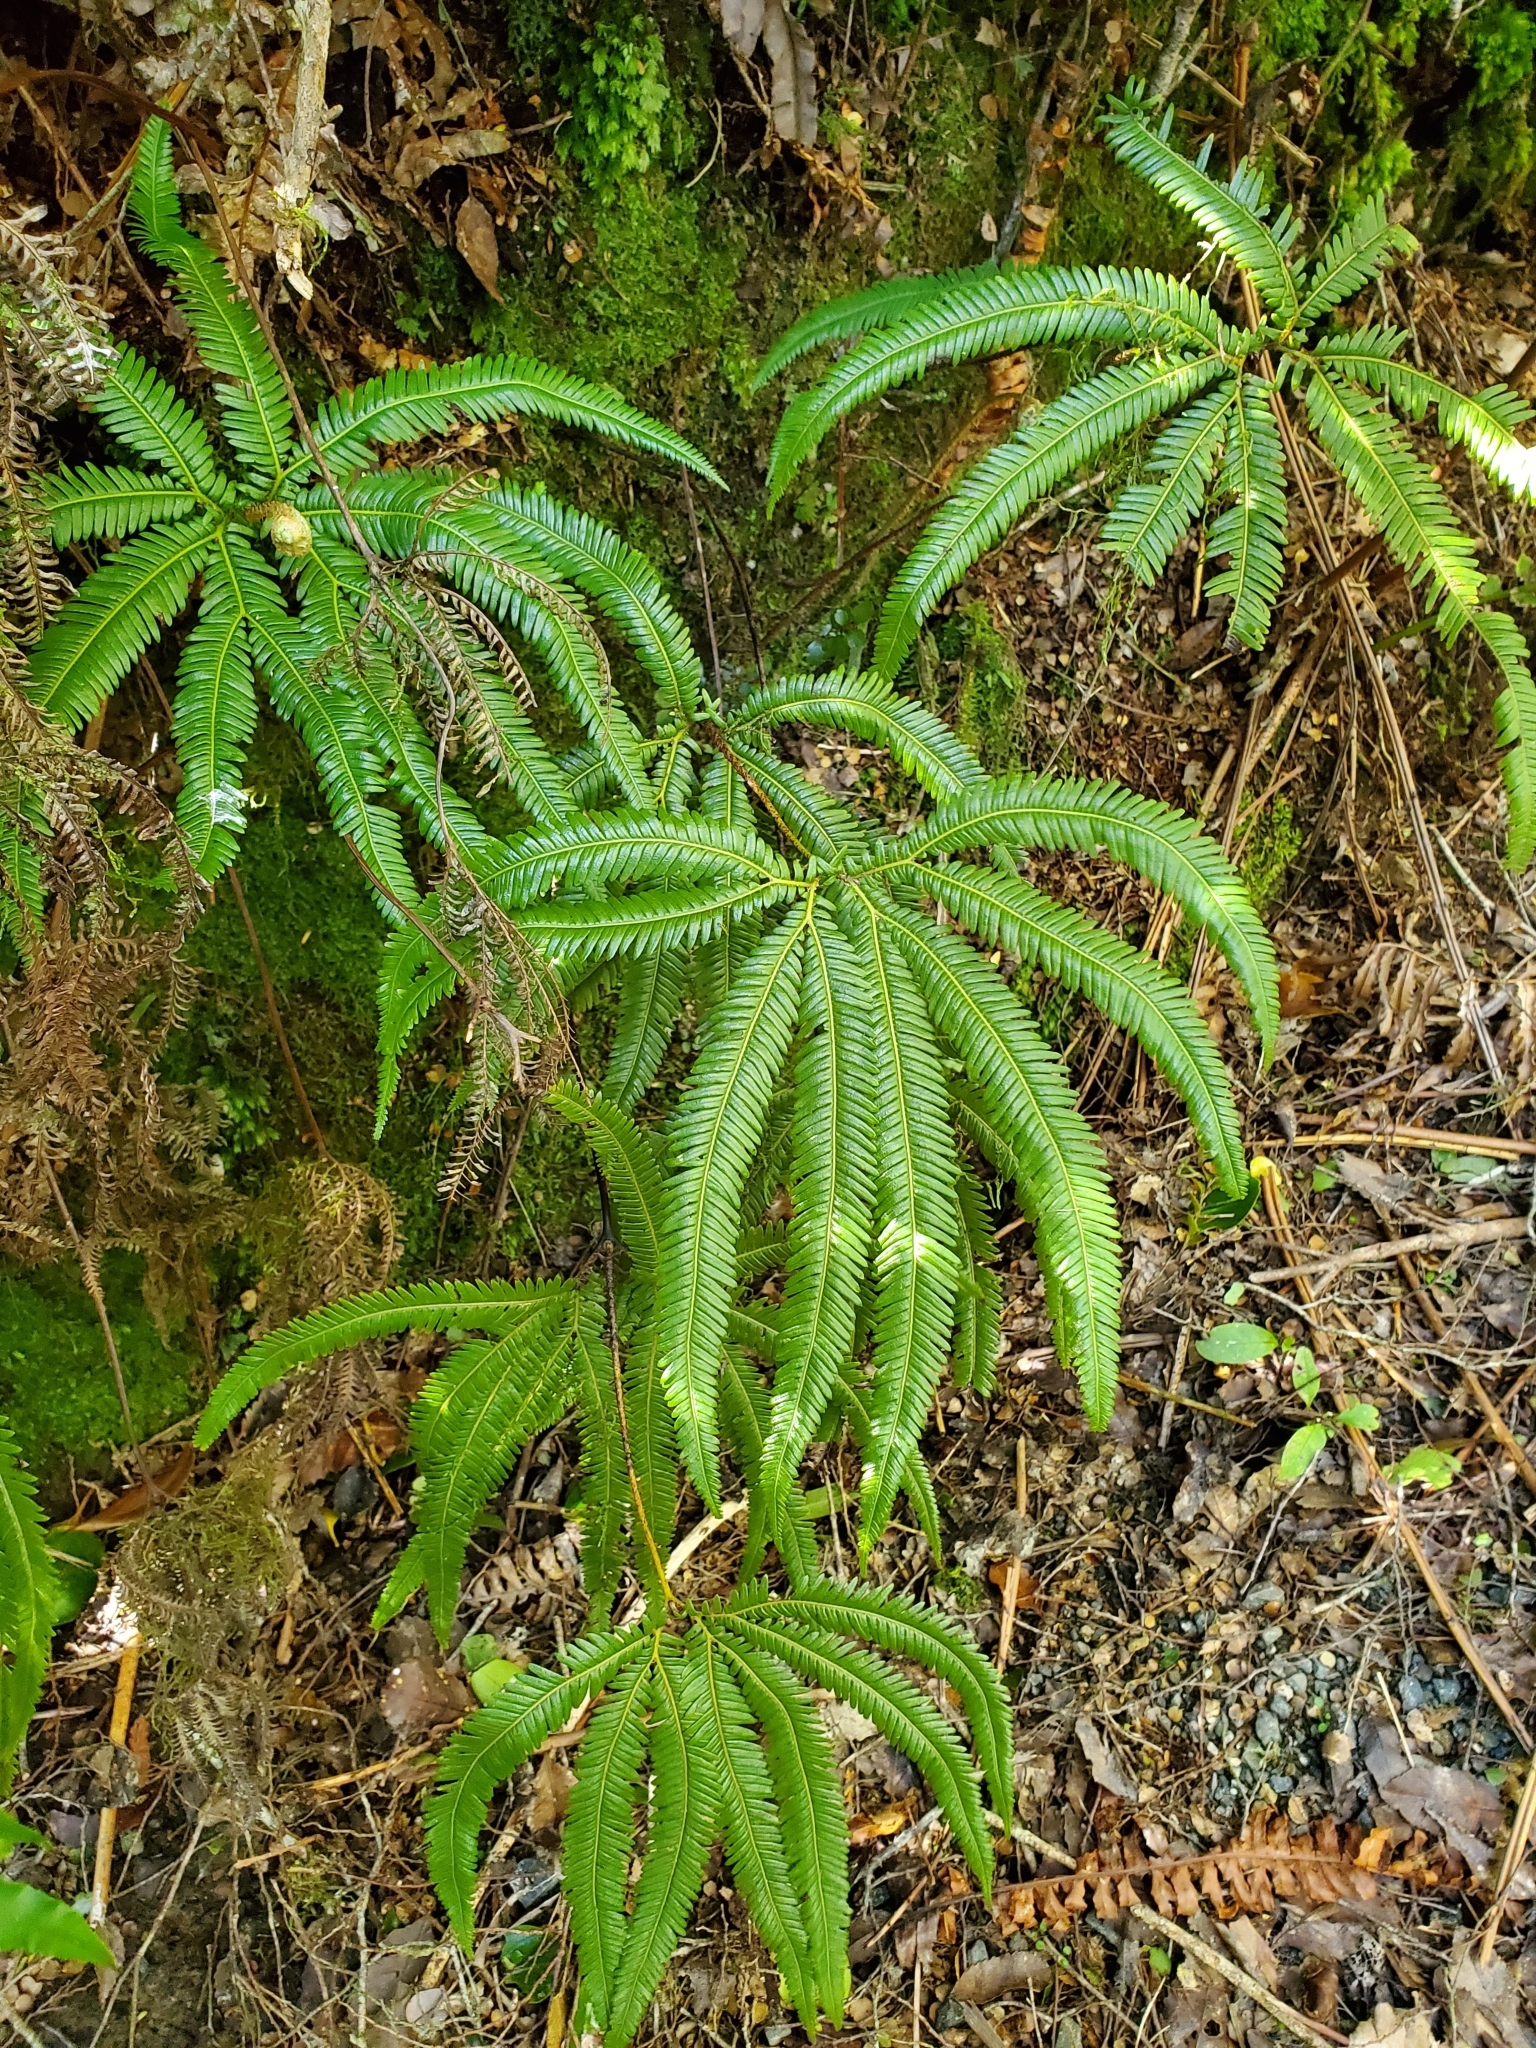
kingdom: Plantae
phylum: Tracheophyta
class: Polypodiopsida
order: Gleicheniales
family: Gleicheniaceae
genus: Sticherus
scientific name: Sticherus cunninghamii
